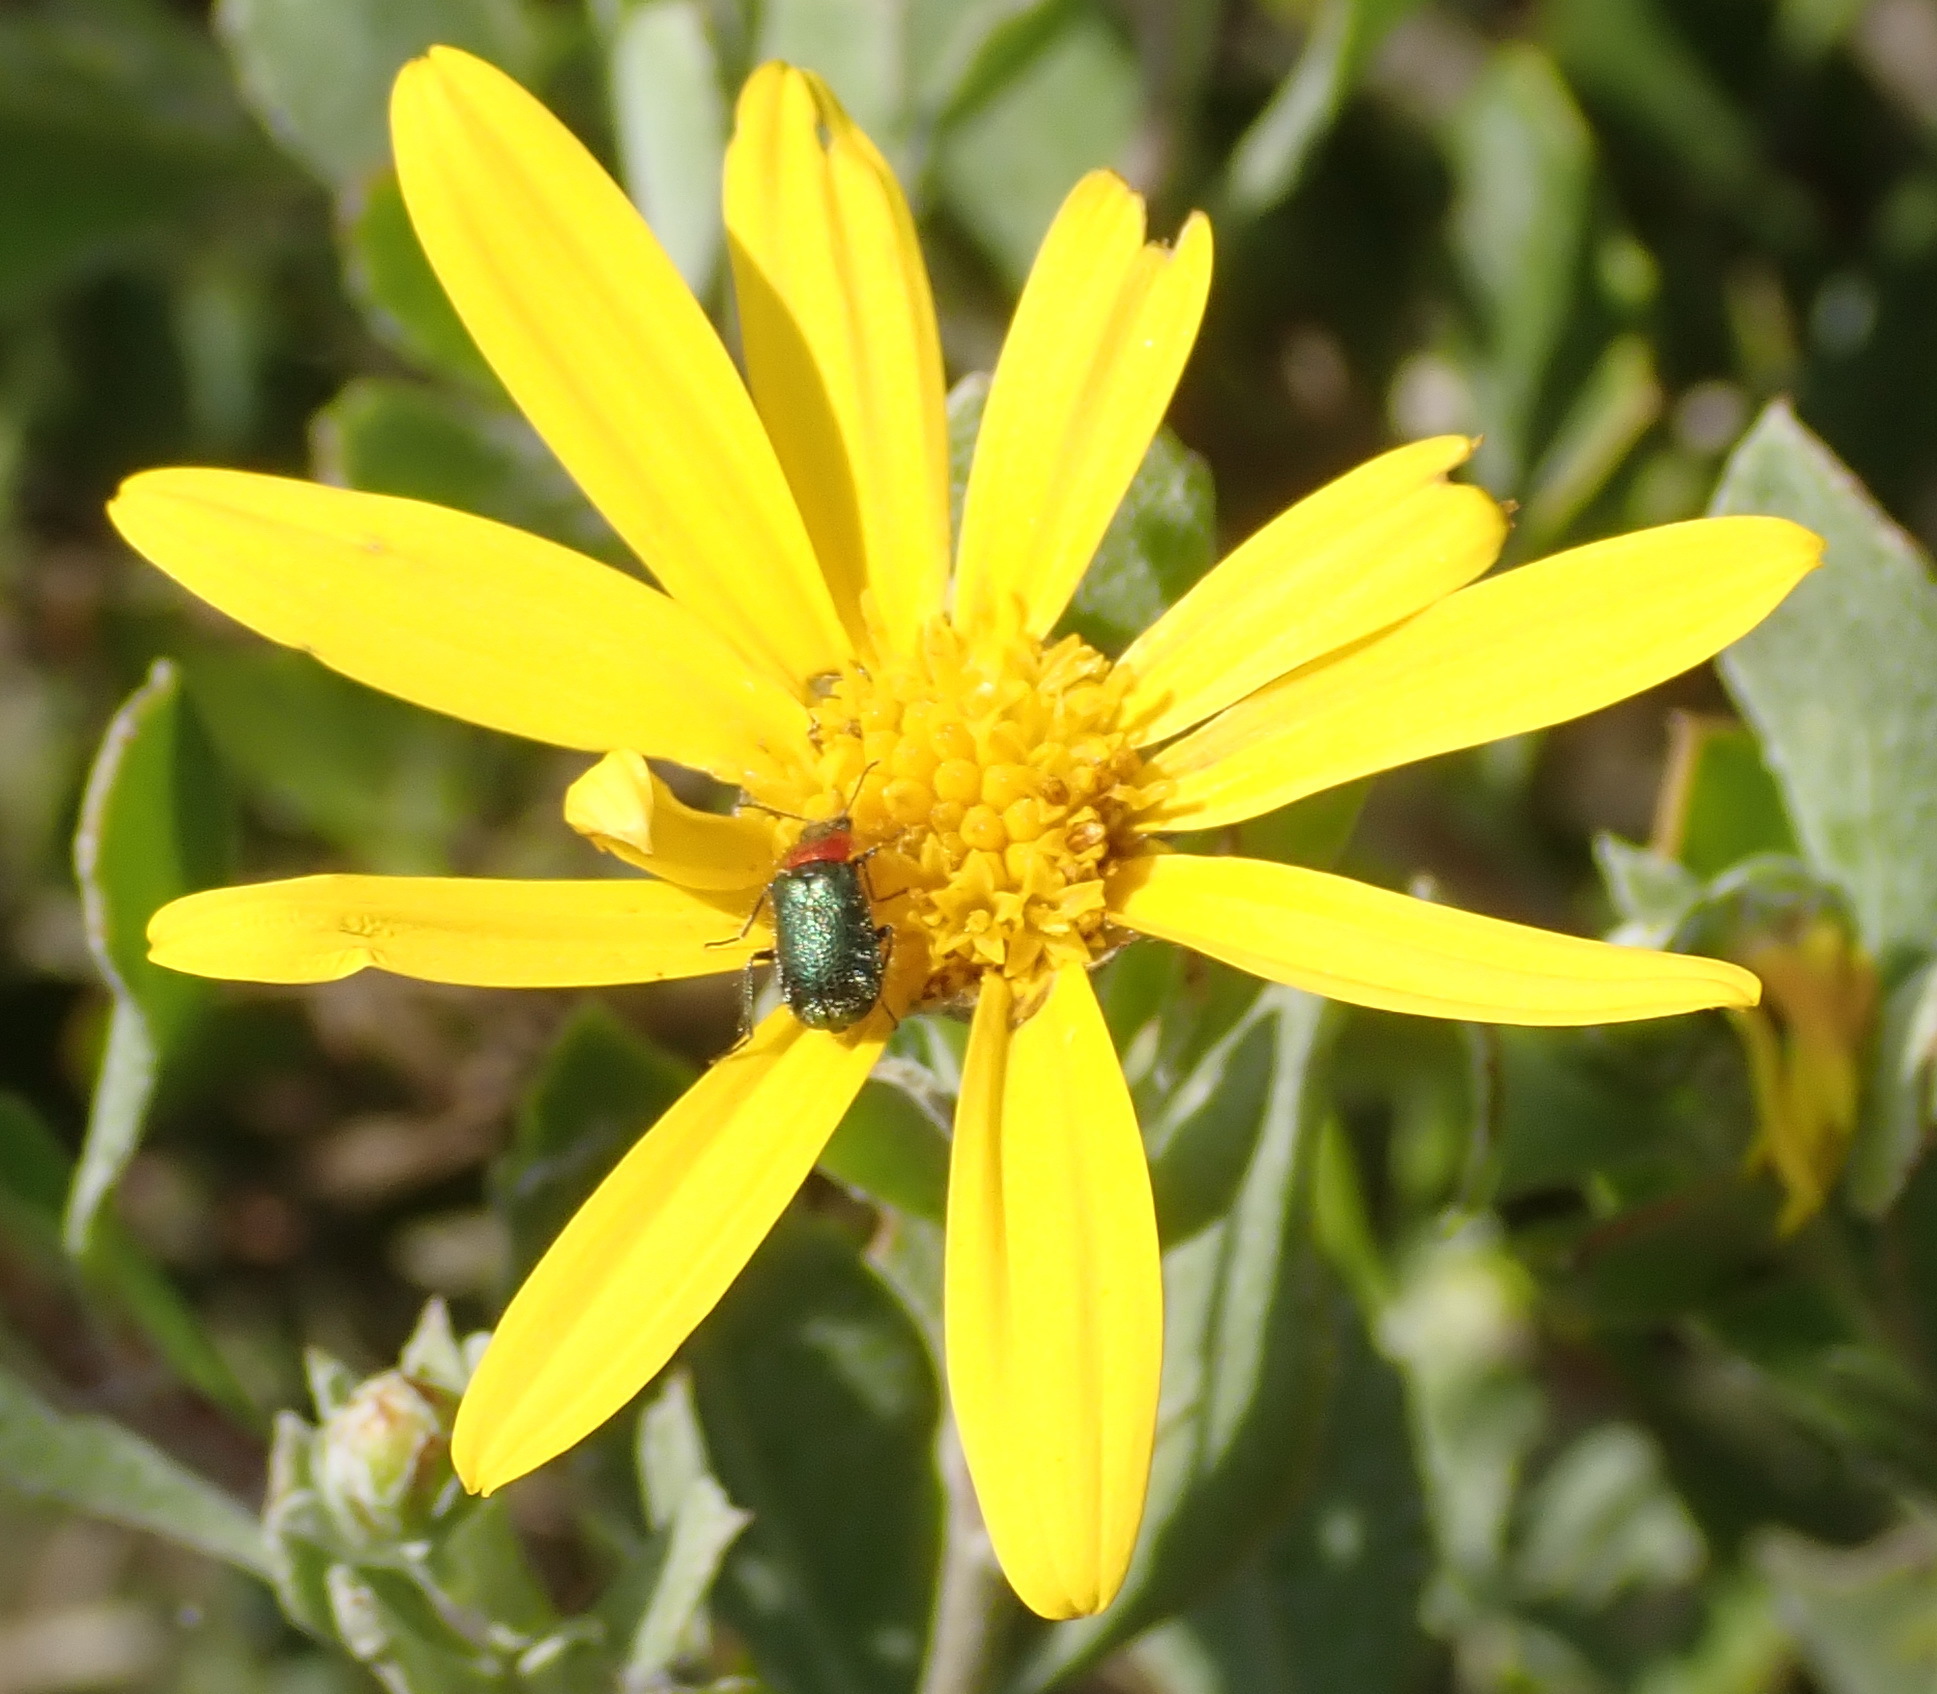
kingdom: Plantae
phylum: Tracheophyta
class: Magnoliopsida
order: Asterales
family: Asteraceae
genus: Osteospermum
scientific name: Osteospermum moniliferum
